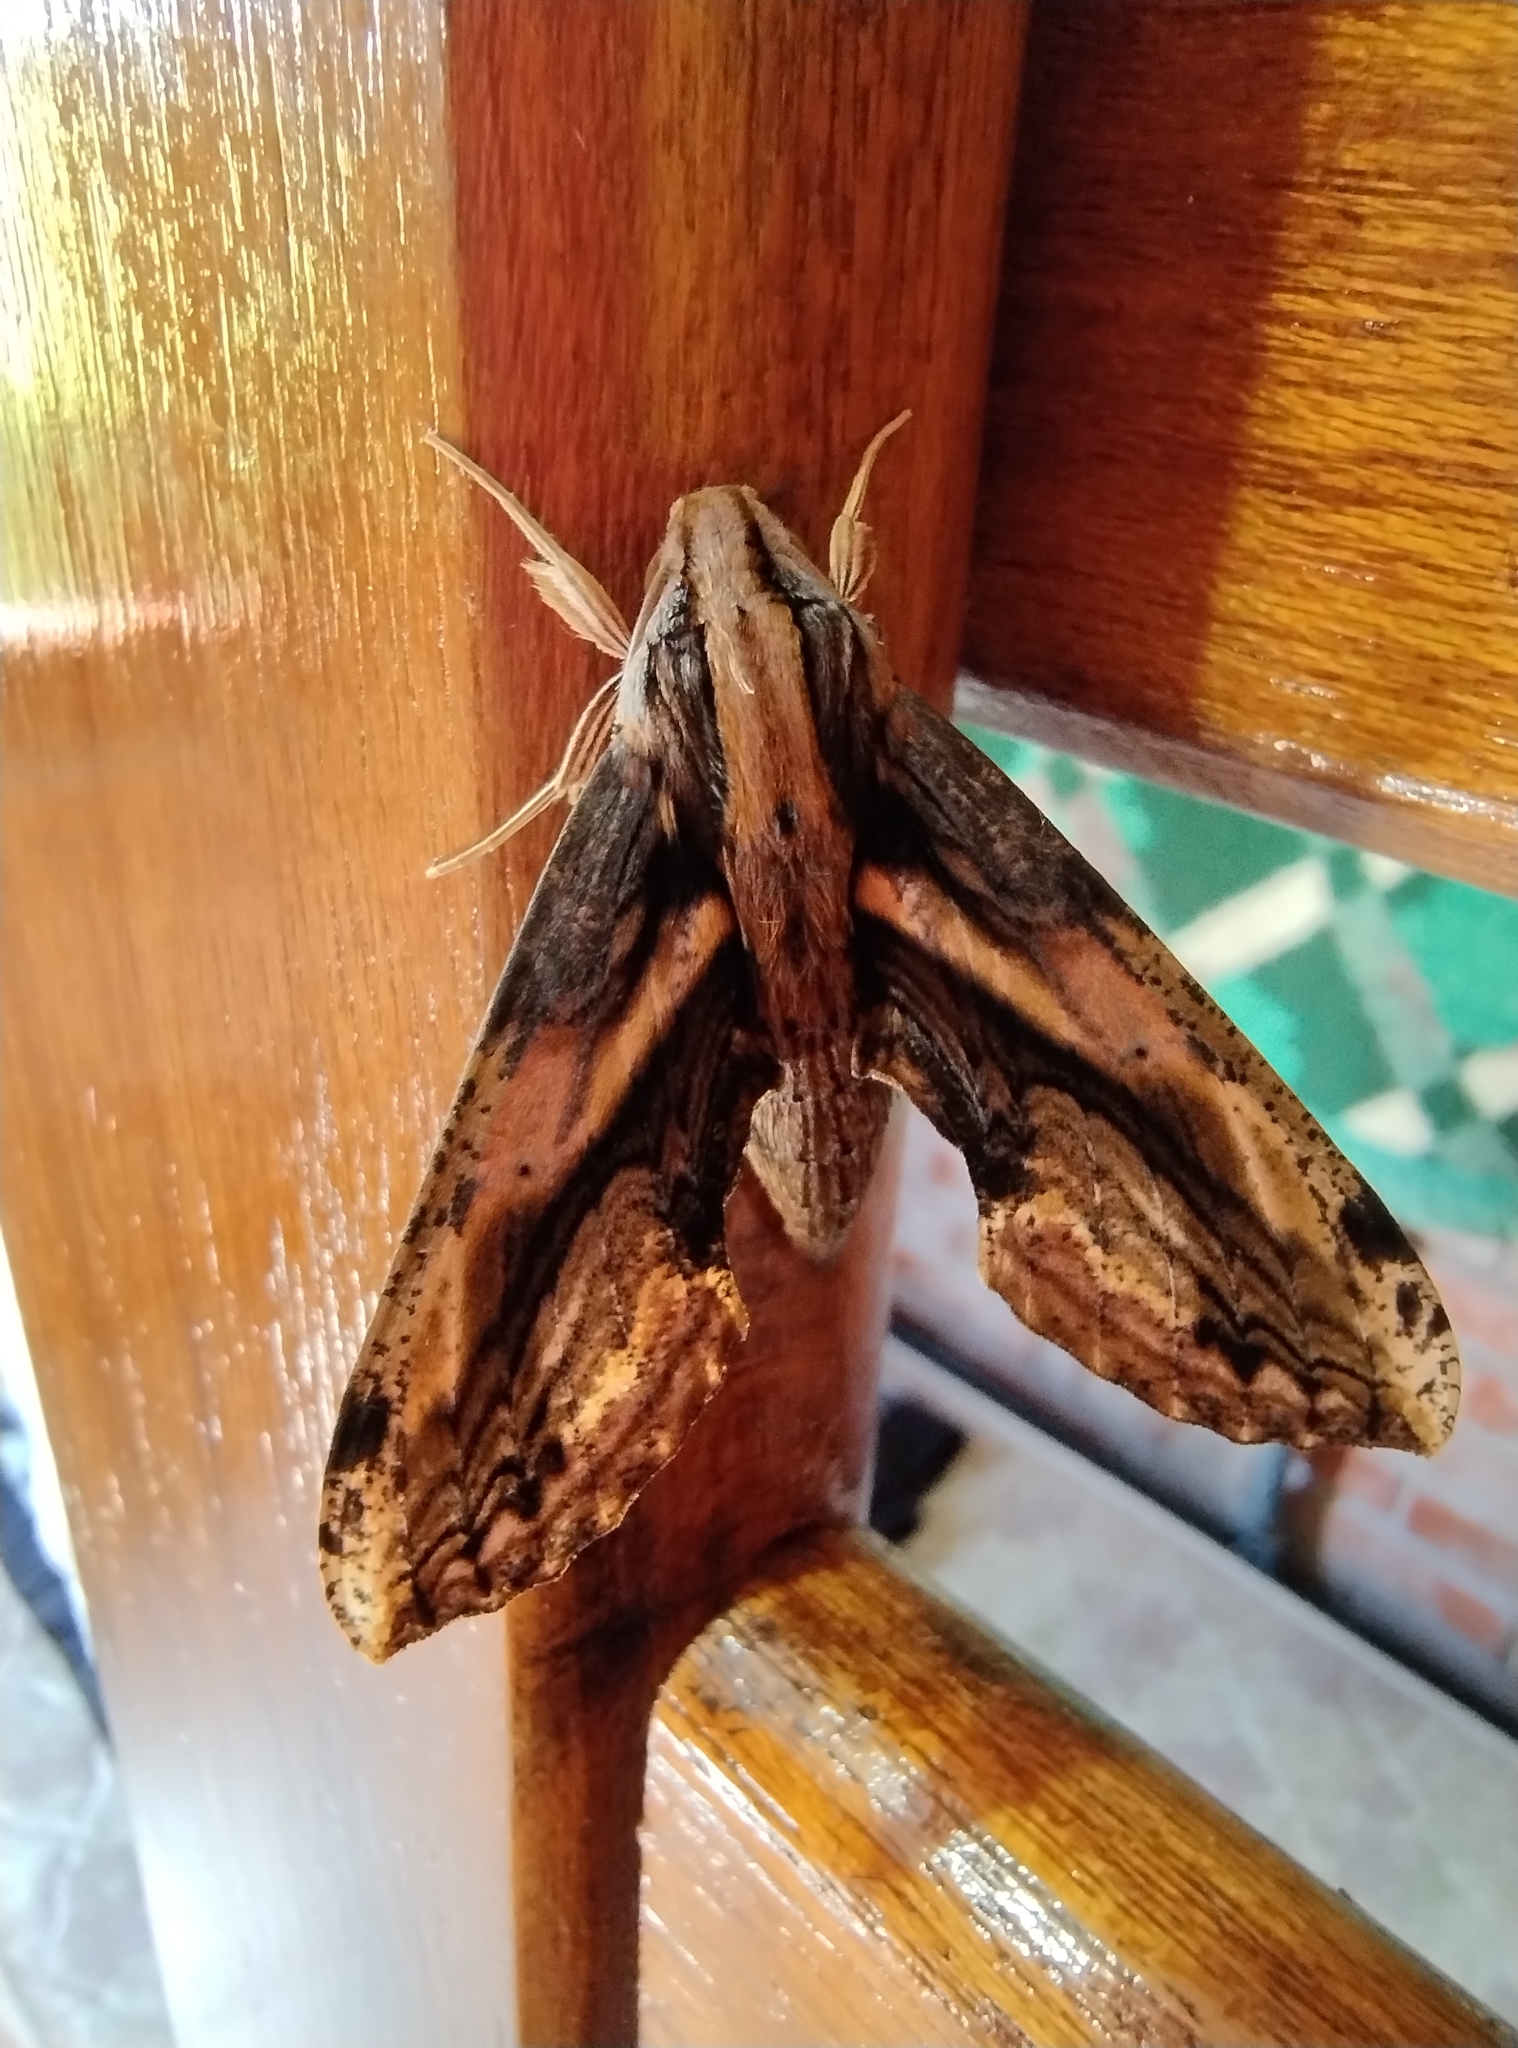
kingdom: Animalia
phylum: Arthropoda
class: Insecta
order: Lepidoptera
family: Sphingidae
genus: Xylophanes
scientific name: Xylophanes crenulatus
